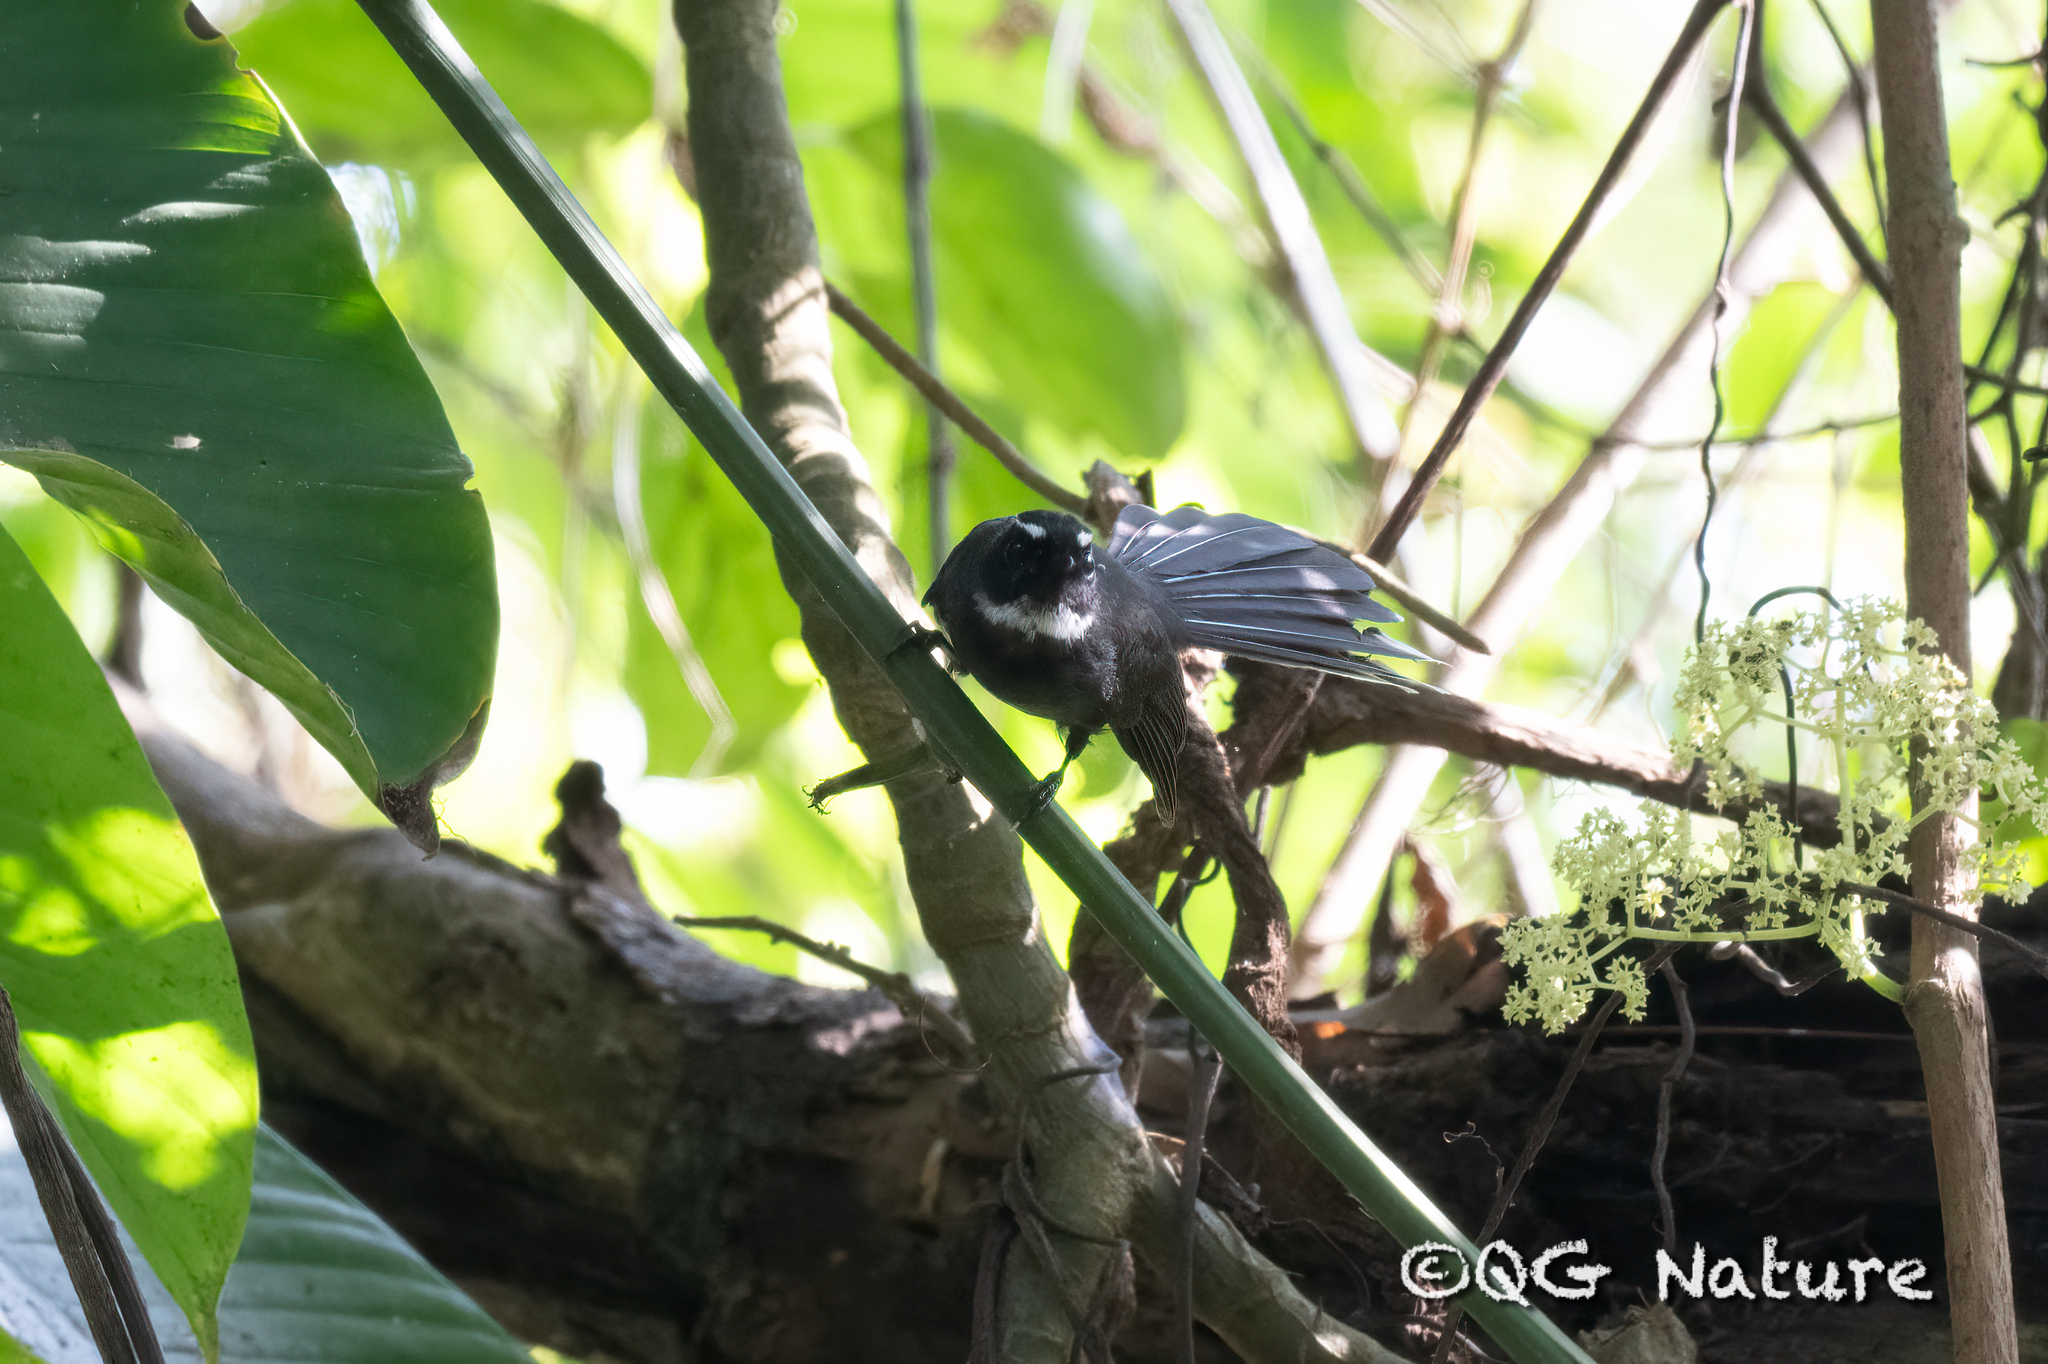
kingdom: Animalia
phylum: Chordata
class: Aves
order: Passeriformes
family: Rhipiduridae
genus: Rhipidura
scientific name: Rhipidura albicollis
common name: White-throated fantail
